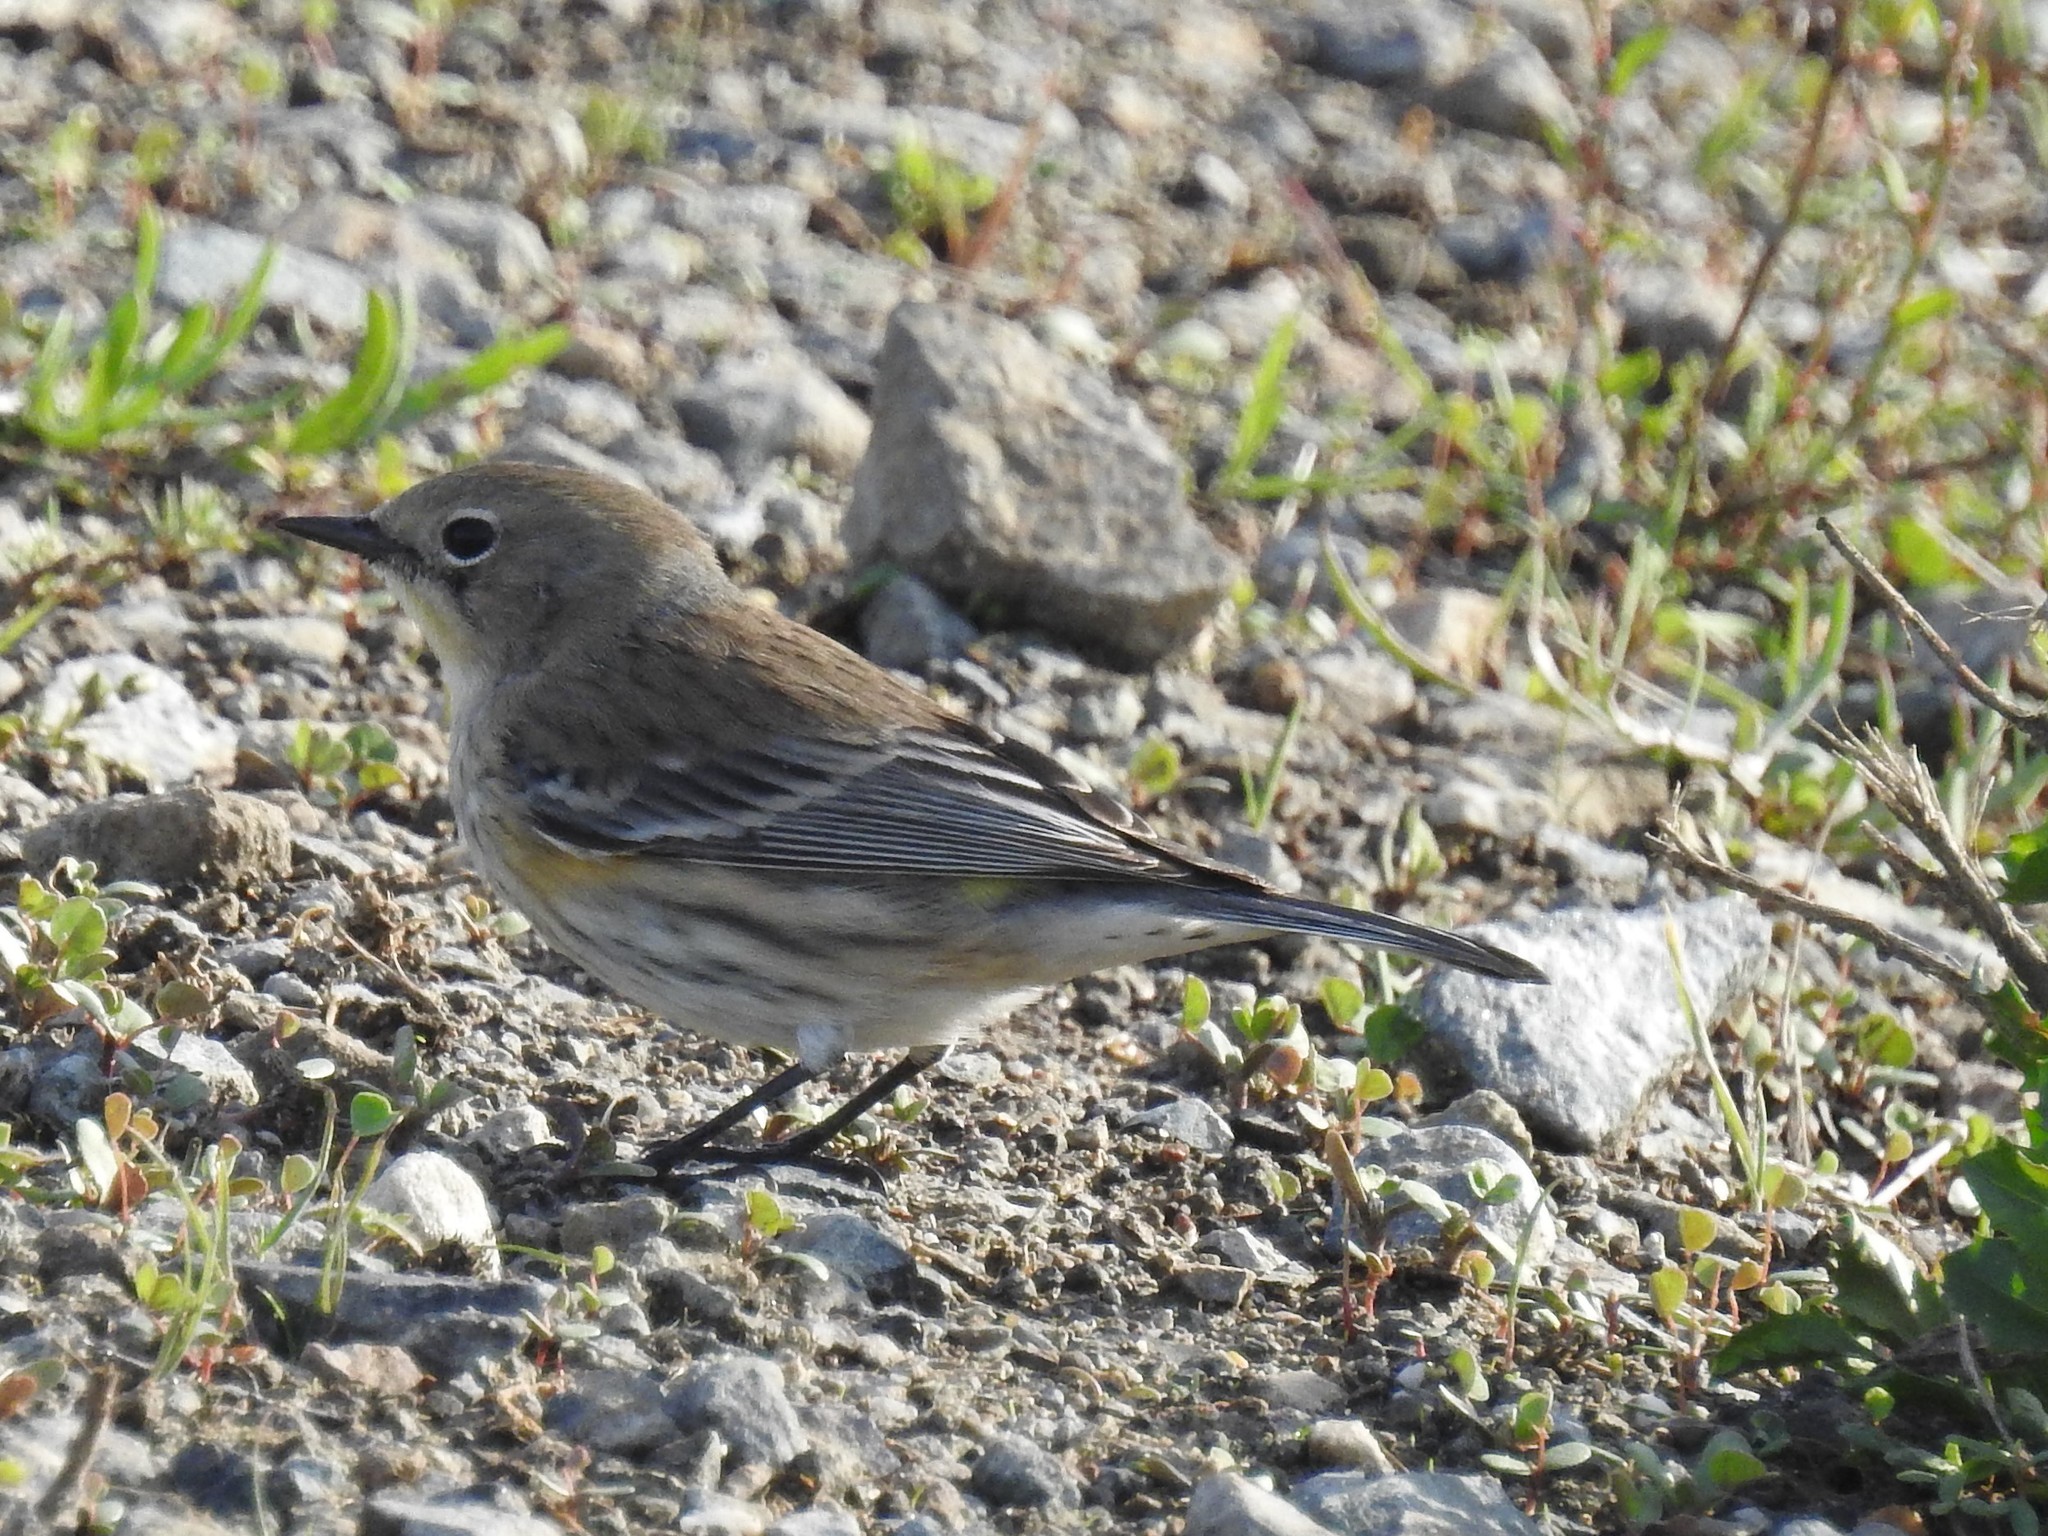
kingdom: Animalia
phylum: Chordata
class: Aves
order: Passeriformes
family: Parulidae
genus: Setophaga
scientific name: Setophaga coronata
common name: Myrtle warbler
